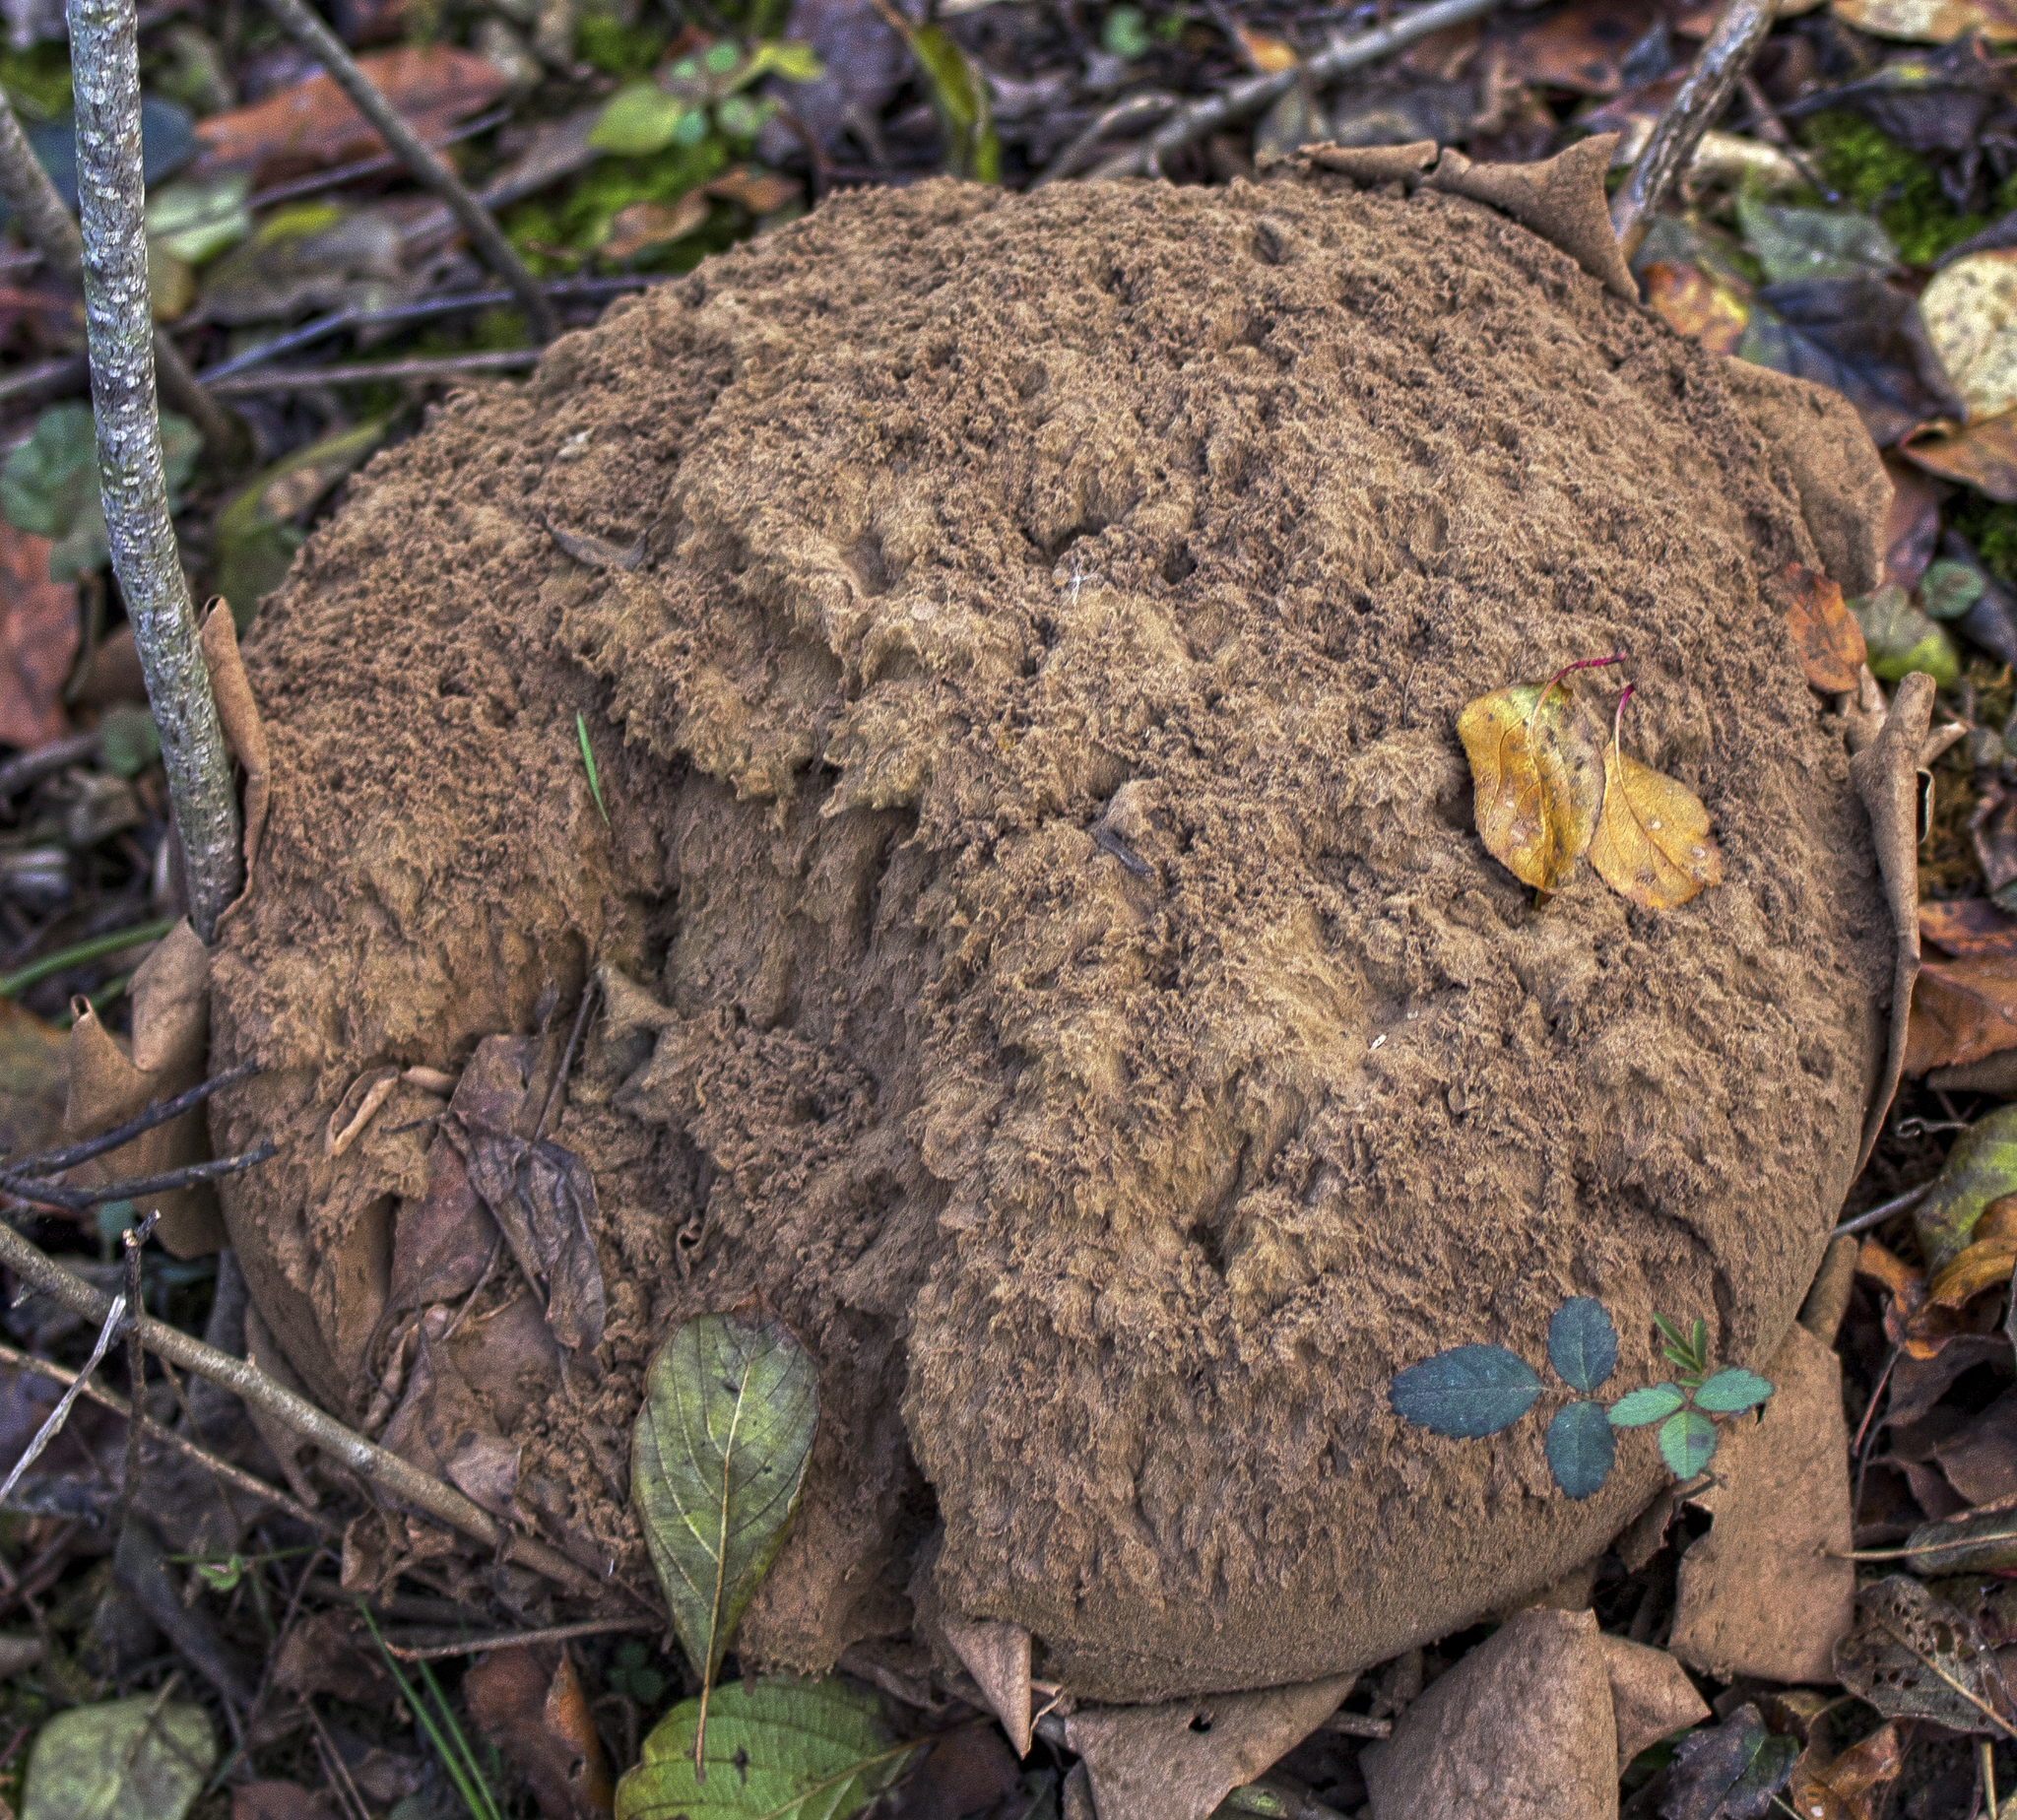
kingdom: Fungi
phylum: Basidiomycota
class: Agaricomycetes
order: Agaricales
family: Lycoperdaceae
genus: Calvatia
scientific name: Calvatia gigantea
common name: Giant puffball
